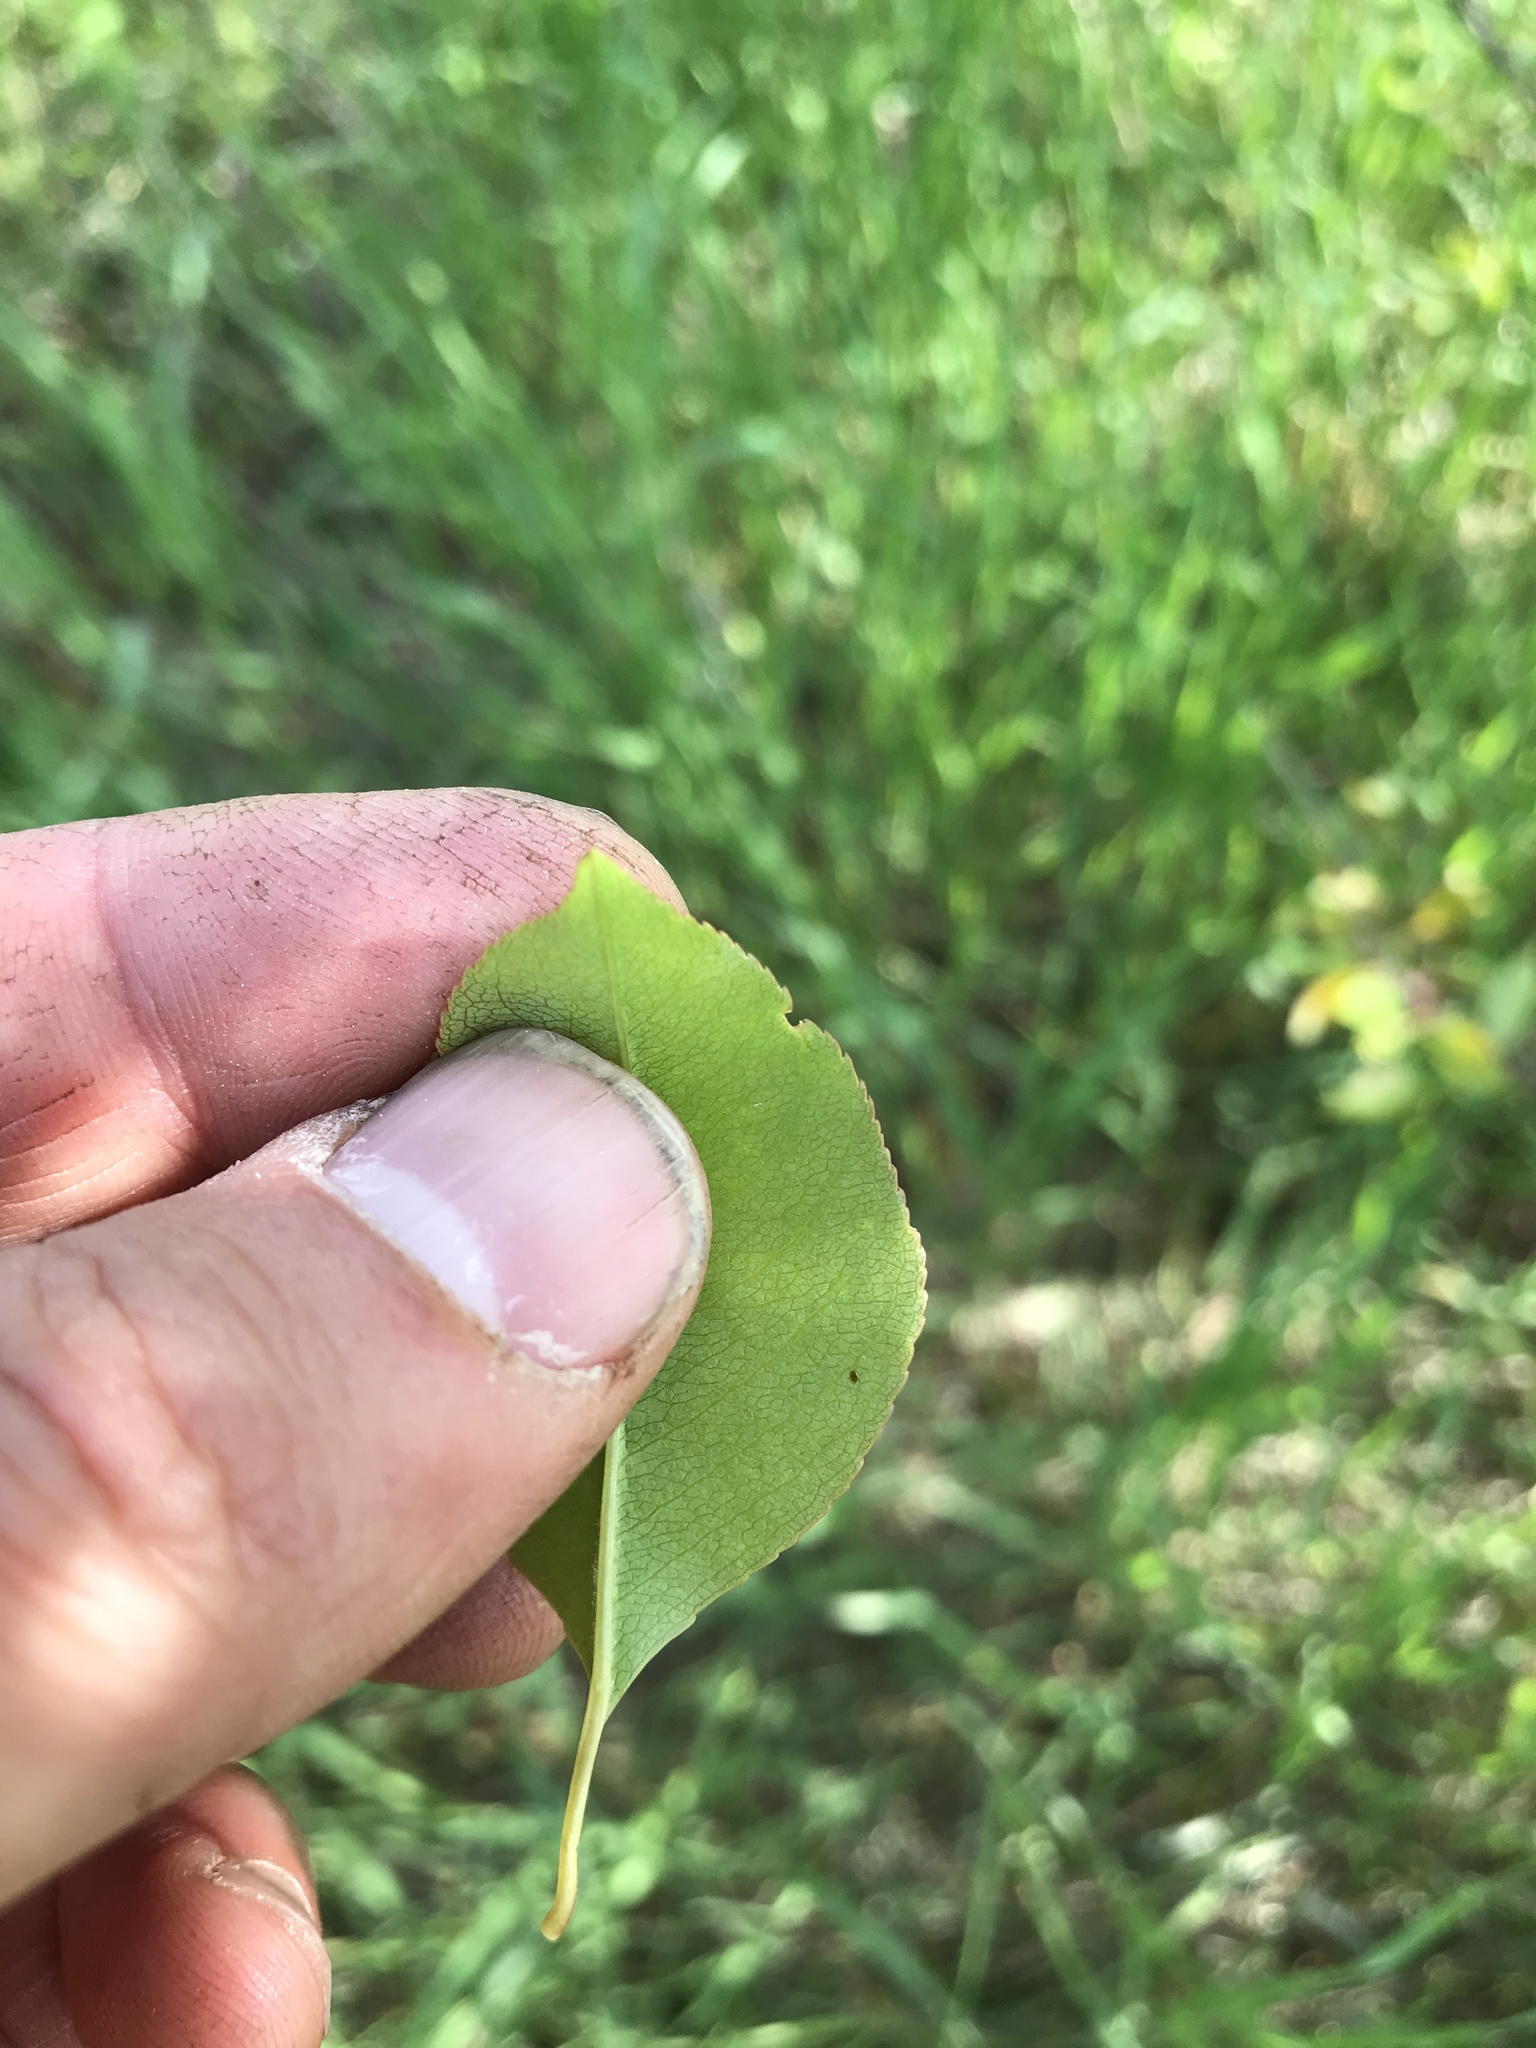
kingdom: Plantae
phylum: Tracheophyta
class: Magnoliopsida
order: Rosales
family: Rosaceae
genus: Prunus
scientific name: Prunus virginiana
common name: Chokecherry
